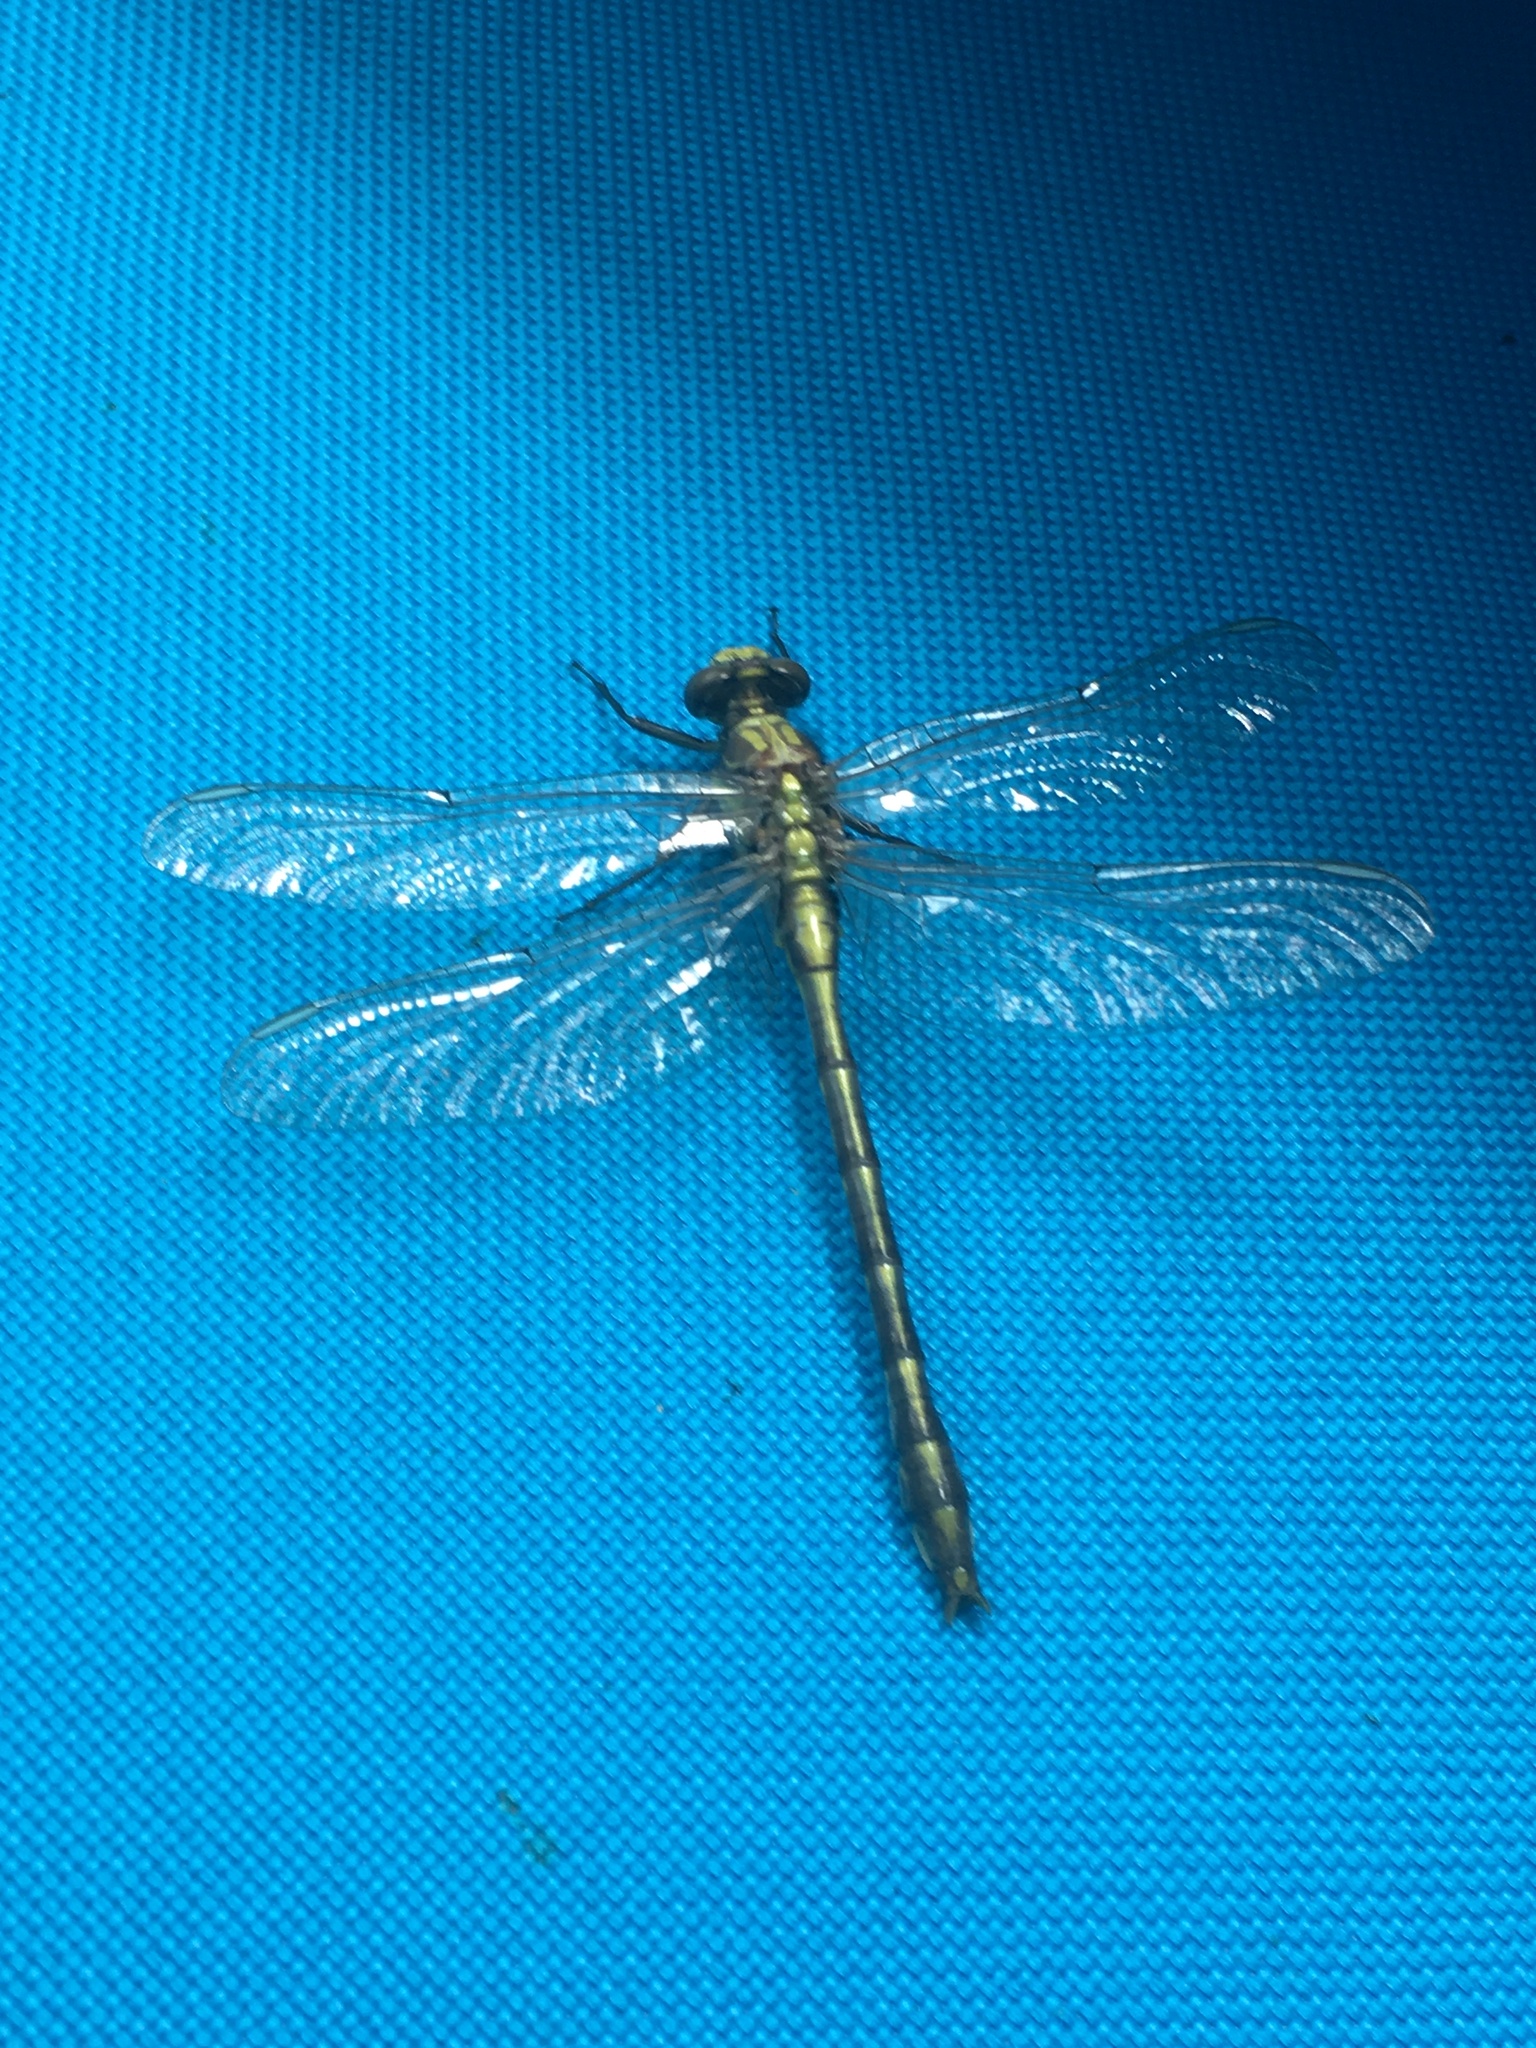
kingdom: Animalia
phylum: Arthropoda
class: Insecta
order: Odonata
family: Gomphidae
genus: Dromogomphus
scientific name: Dromogomphus spinosus
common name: Black-shouldered spinyleg
